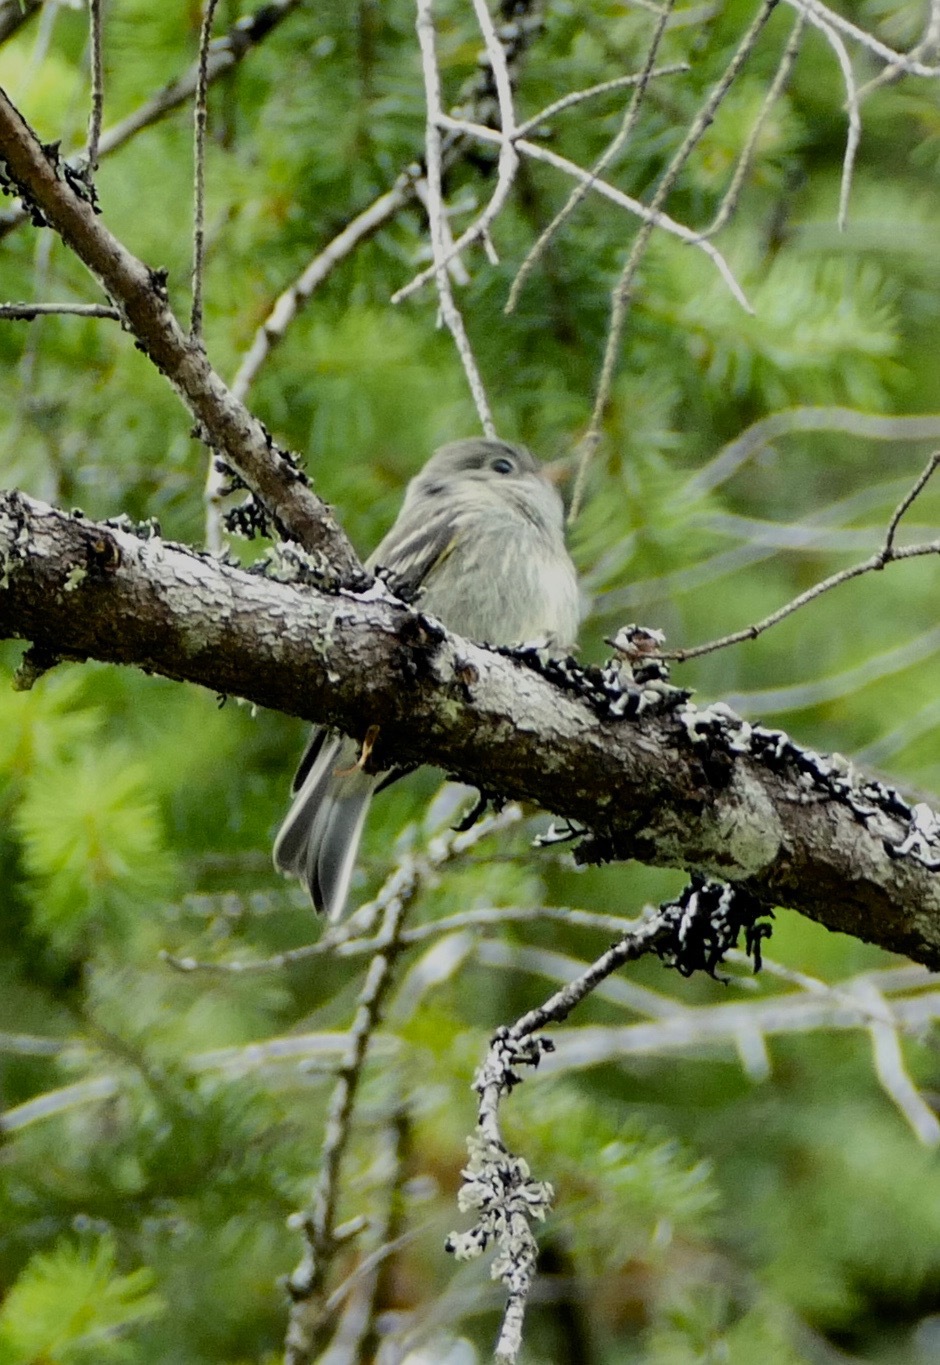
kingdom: Animalia
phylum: Chordata
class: Aves
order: Passeriformes
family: Tyrannidae
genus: Empidonax
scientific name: Empidonax hammondii
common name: Hammond's flycatcher
